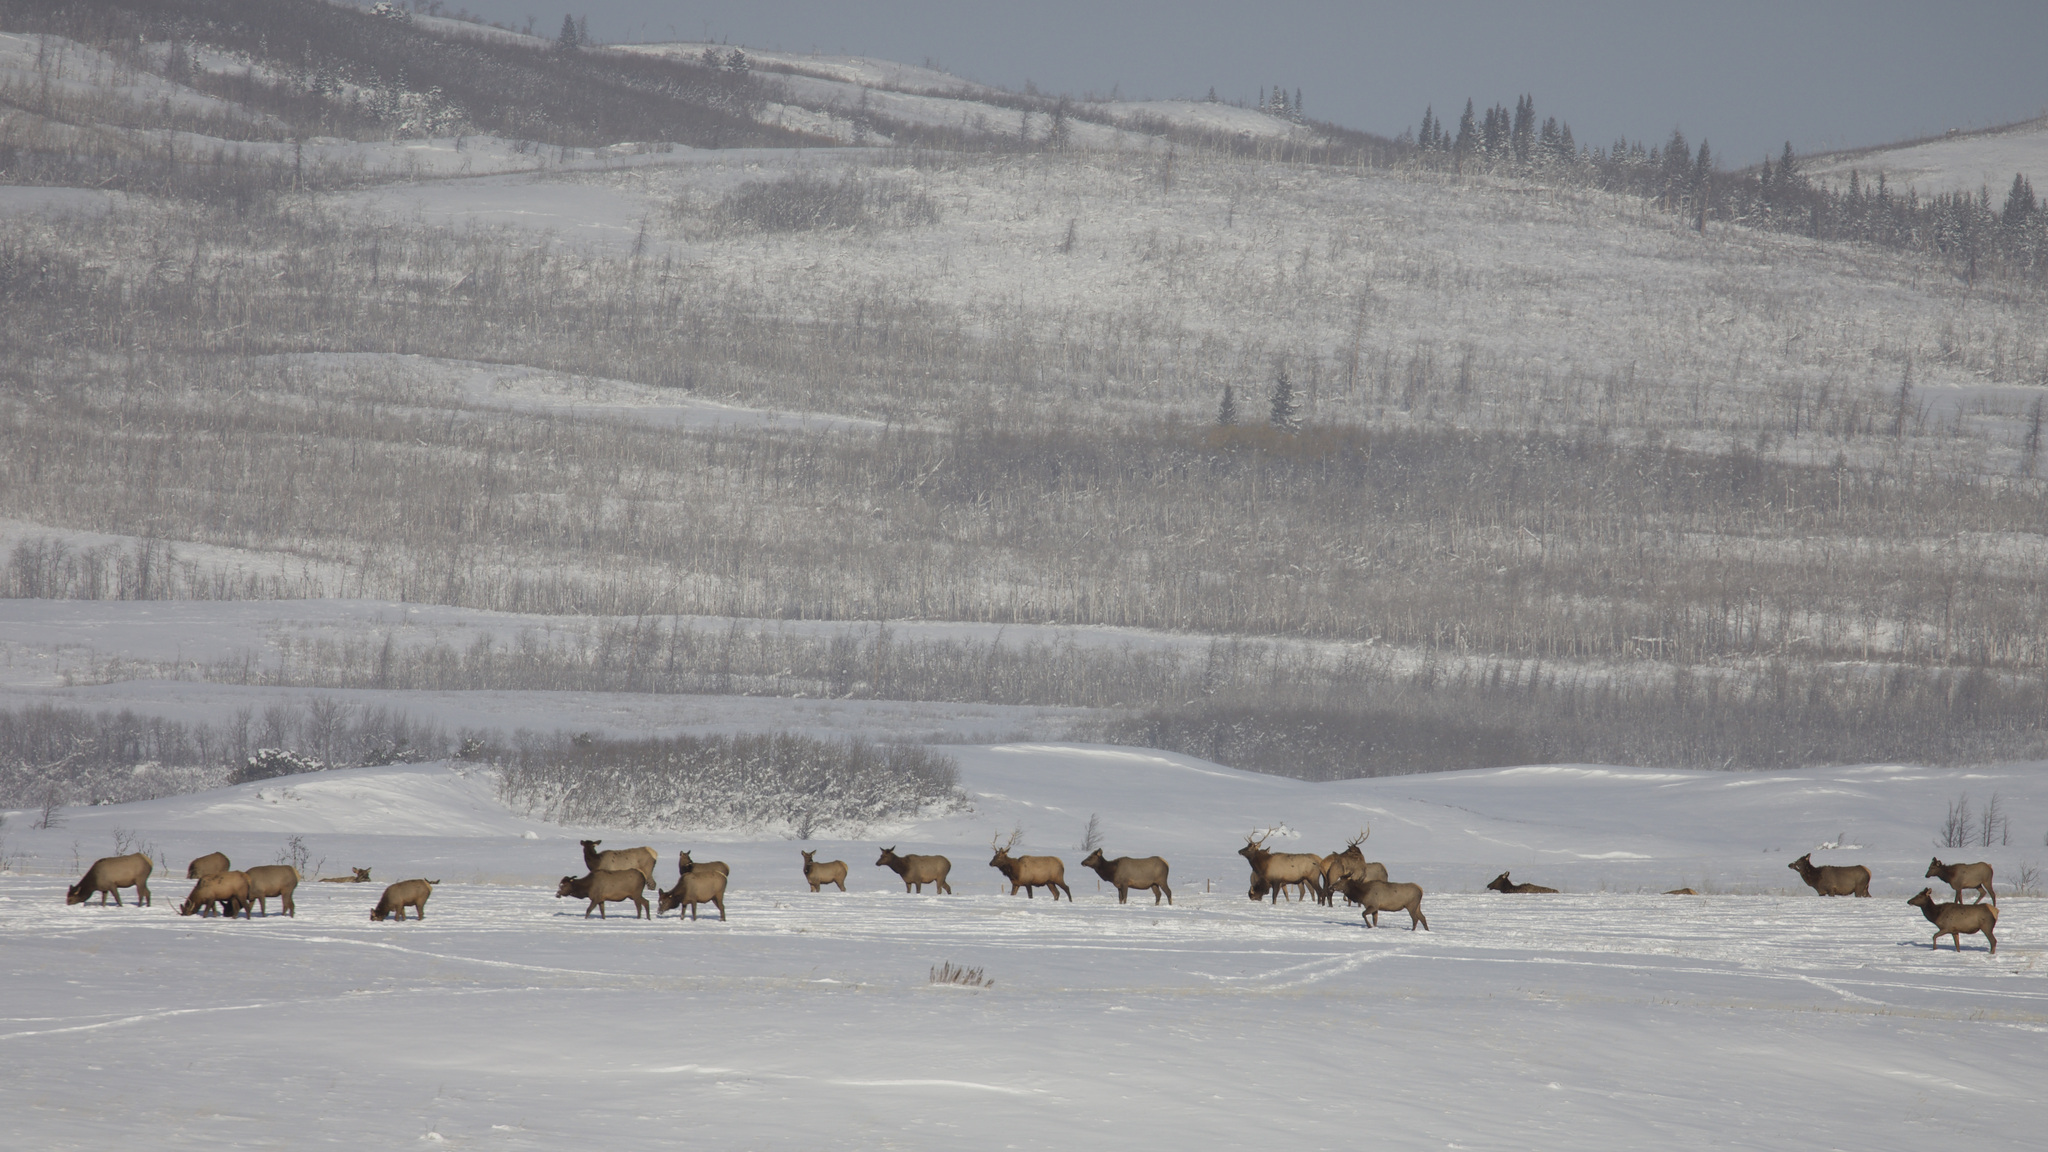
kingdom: Animalia
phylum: Chordata
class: Mammalia
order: Artiodactyla
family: Cervidae
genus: Cervus
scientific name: Cervus elaphus
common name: Red deer
